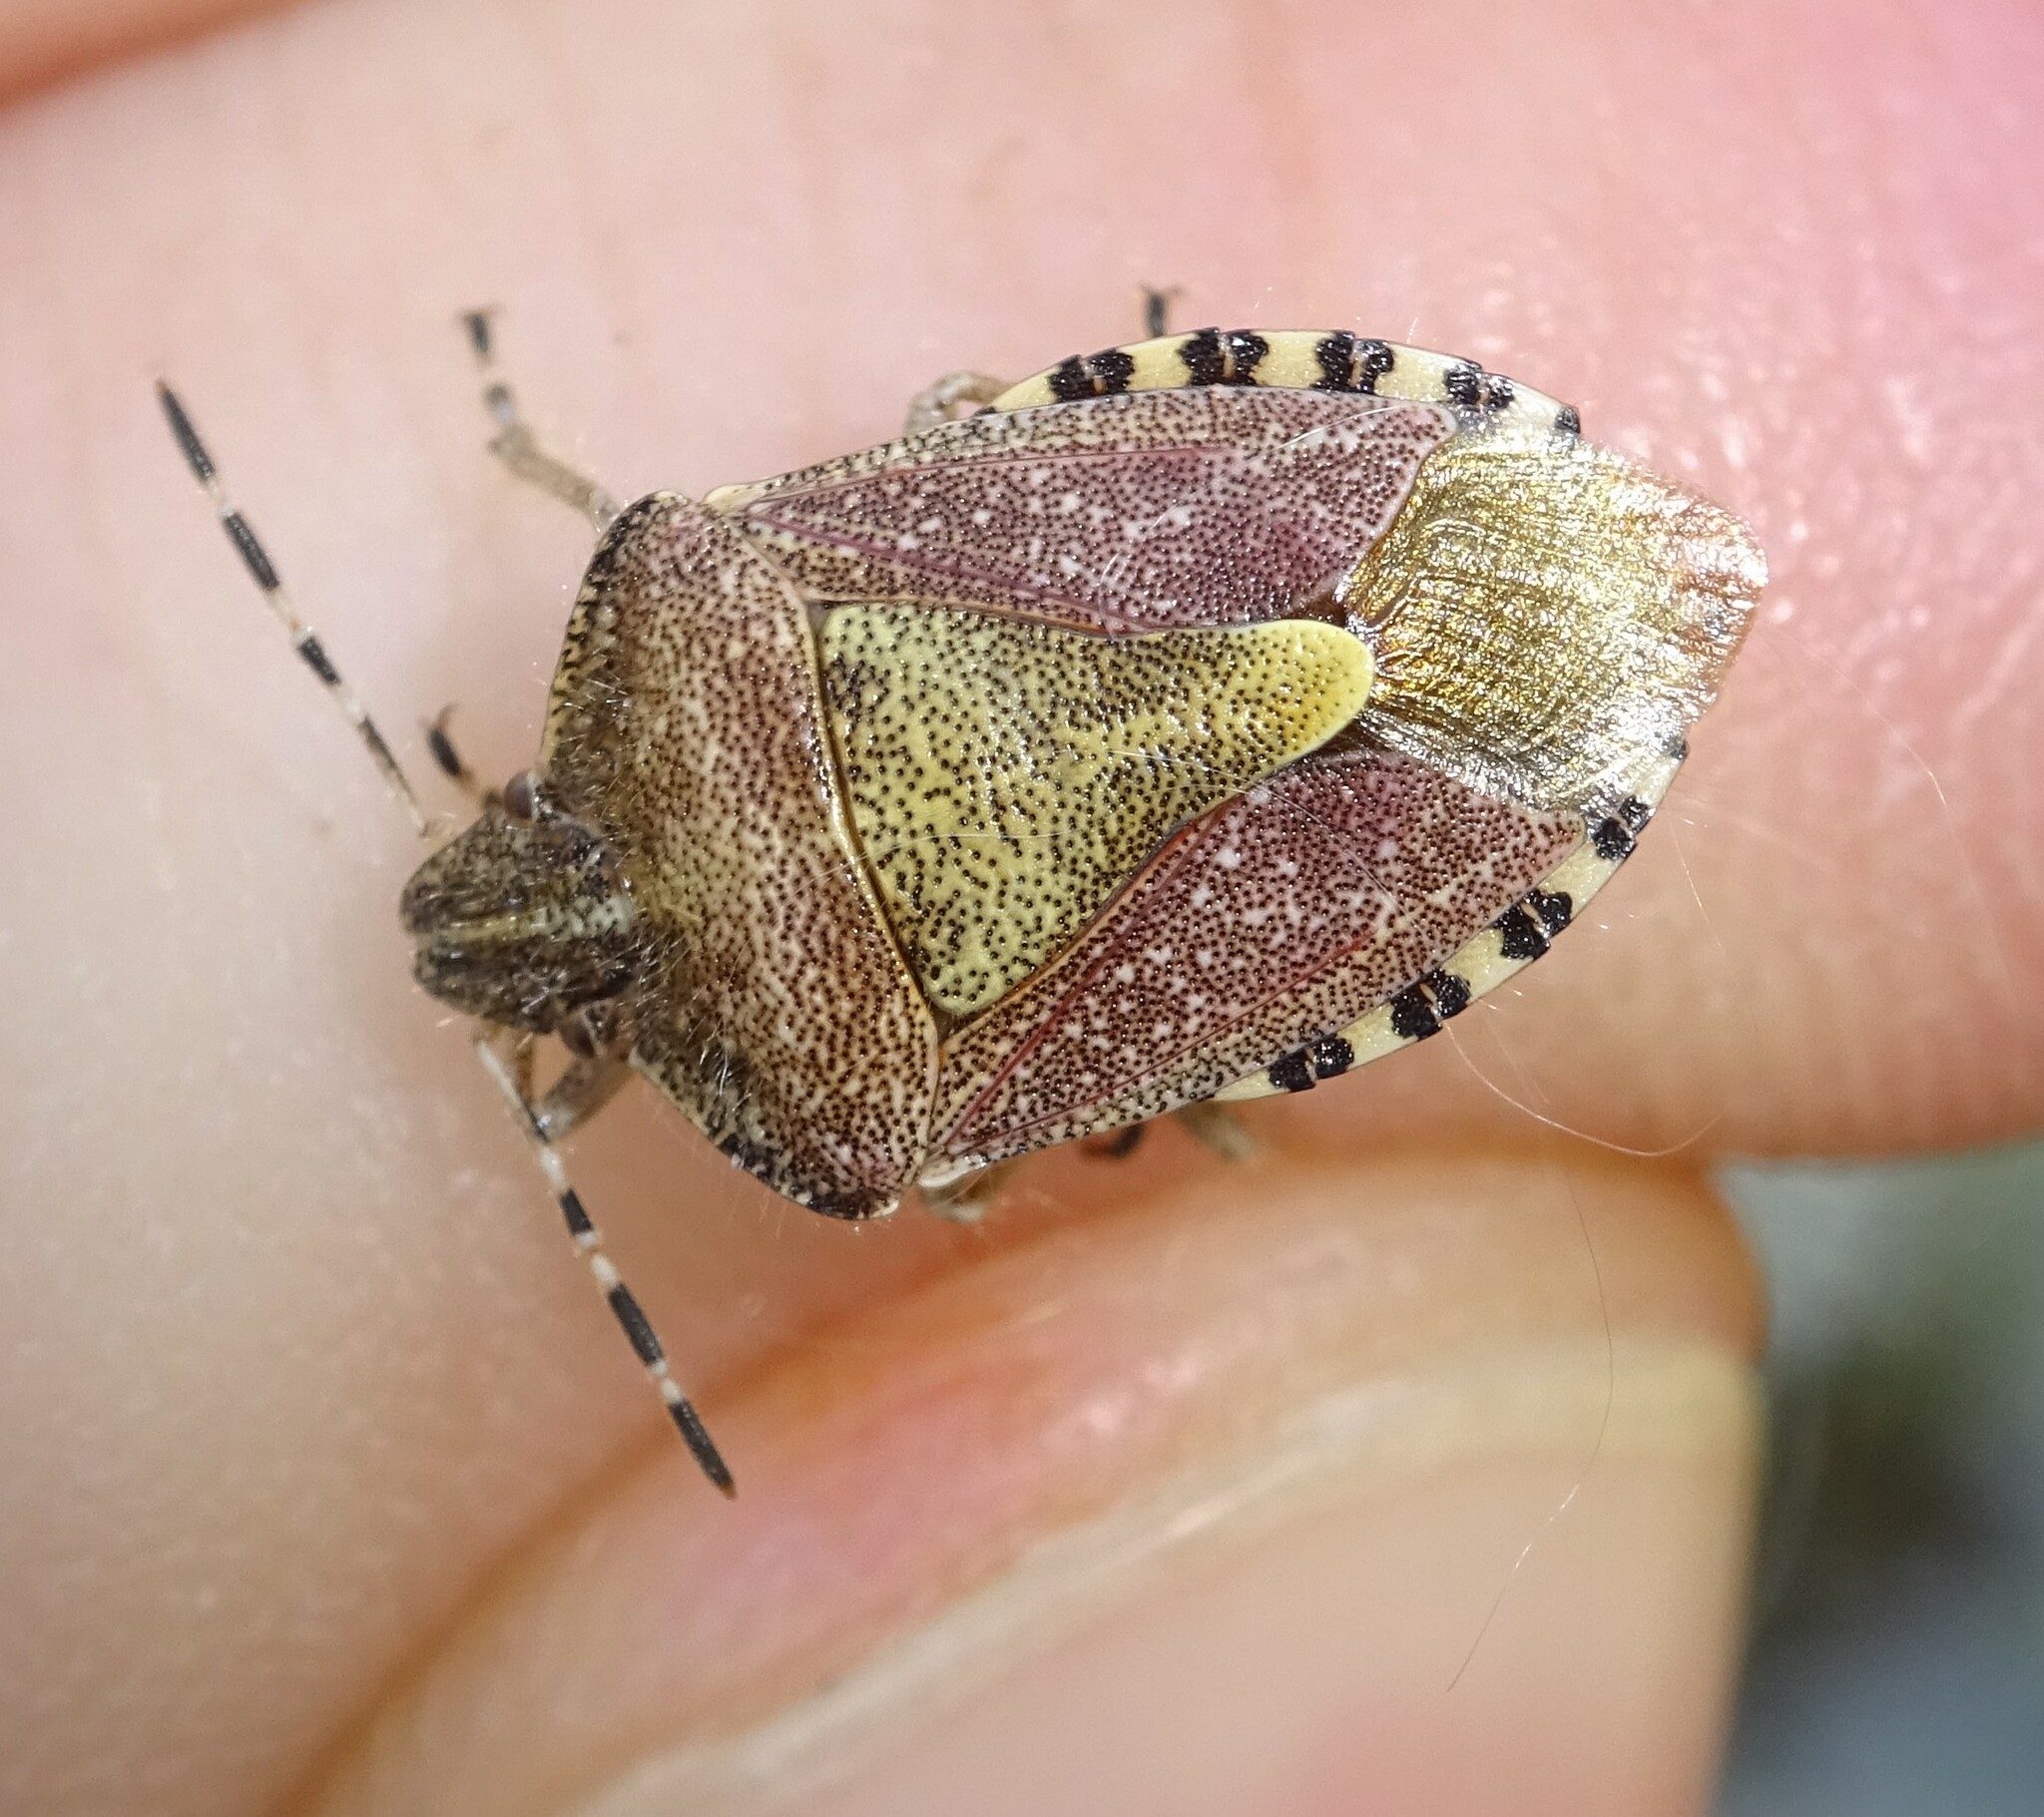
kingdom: Animalia
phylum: Arthropoda
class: Insecta
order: Hemiptera
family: Pentatomidae
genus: Dolycoris
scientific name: Dolycoris baccarum
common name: Sloe bug
